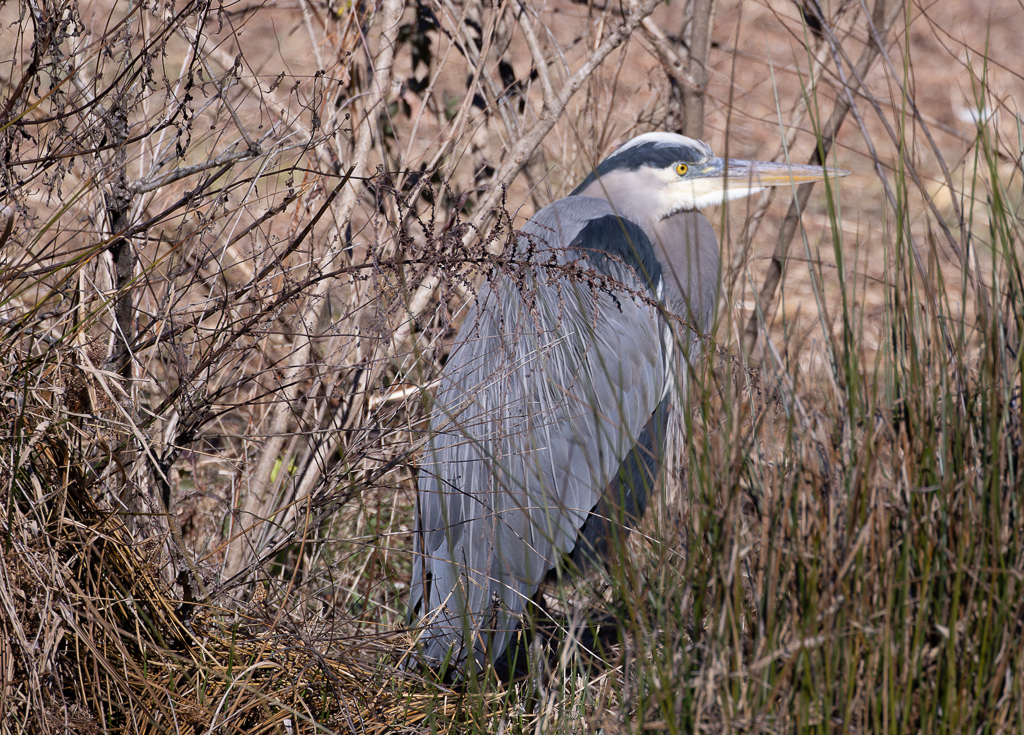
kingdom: Animalia
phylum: Chordata
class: Aves
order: Pelecaniformes
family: Ardeidae
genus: Ardea
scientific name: Ardea herodias
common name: Great blue heron
